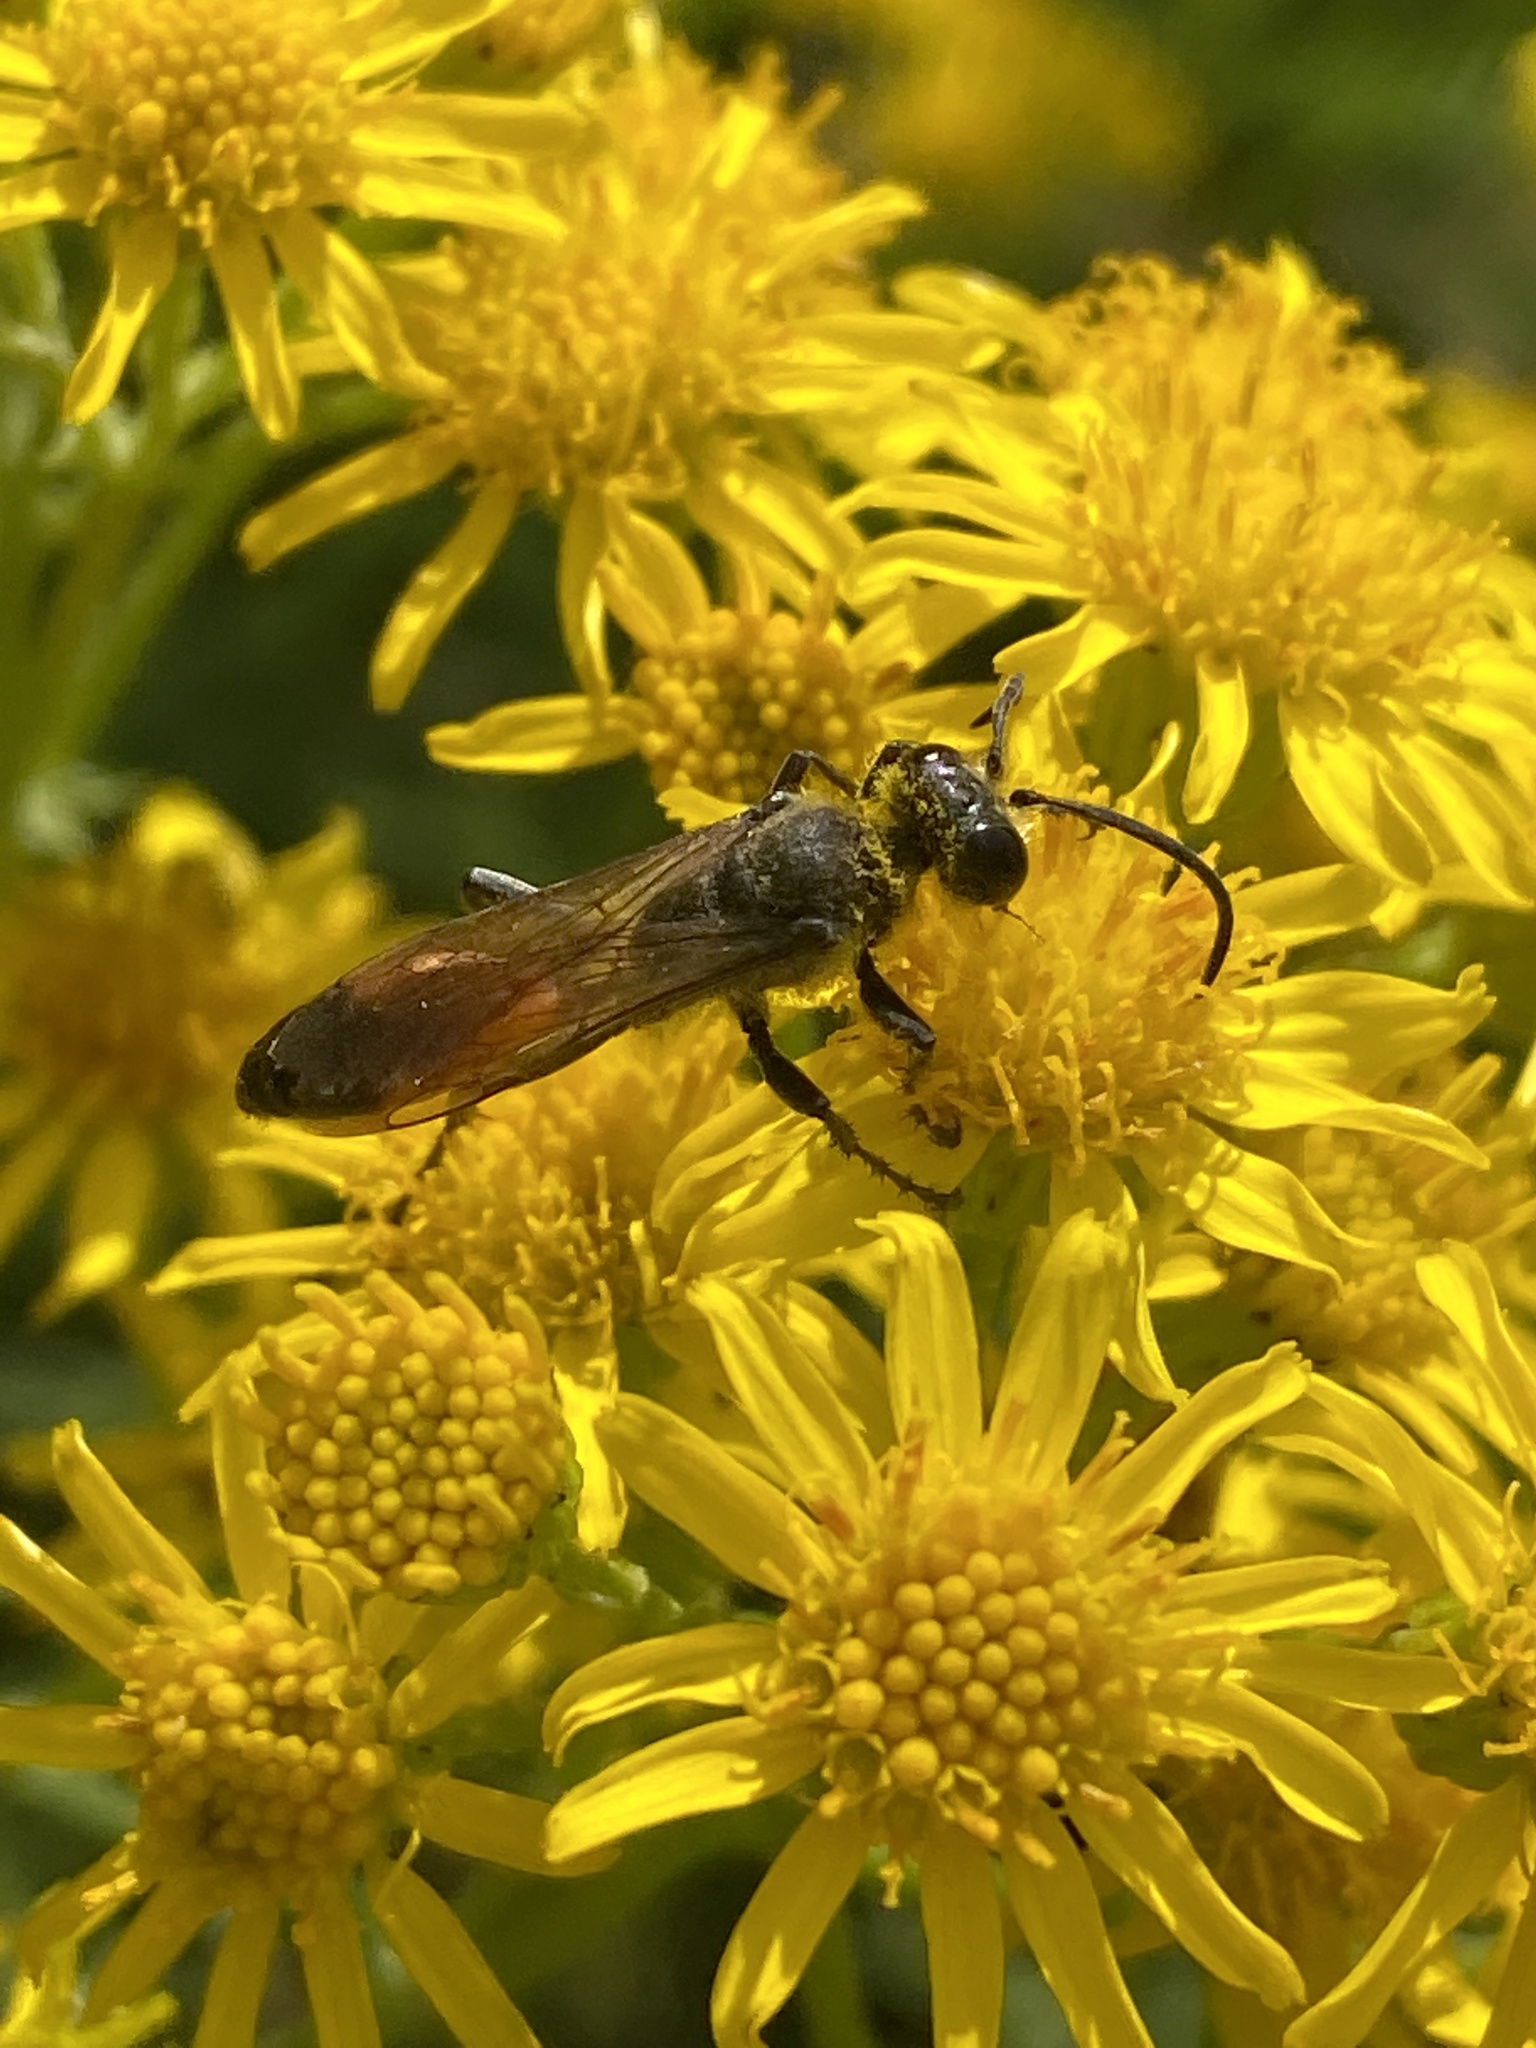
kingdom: Animalia
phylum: Arthropoda
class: Insecta
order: Hymenoptera
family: Sphecidae
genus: Sphex
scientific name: Sphex funerarius
